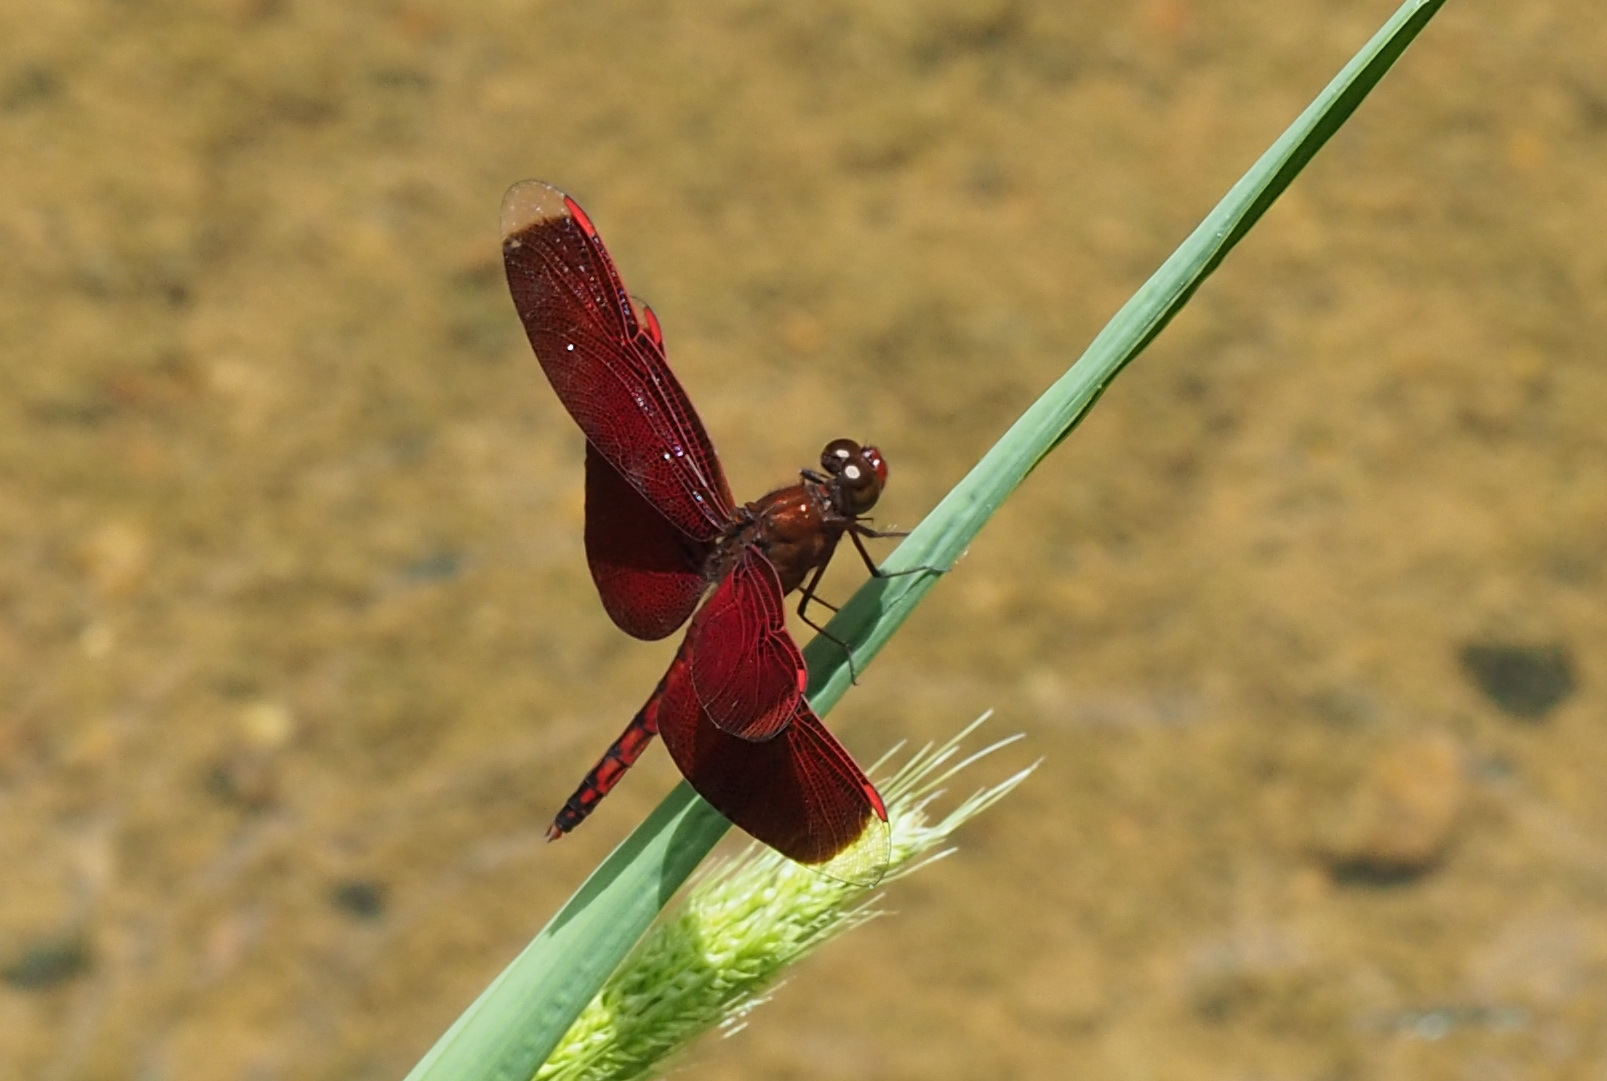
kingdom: Animalia
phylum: Arthropoda
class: Insecta
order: Odonata
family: Libellulidae
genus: Neurothemis
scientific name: Neurothemis taiwanensis
